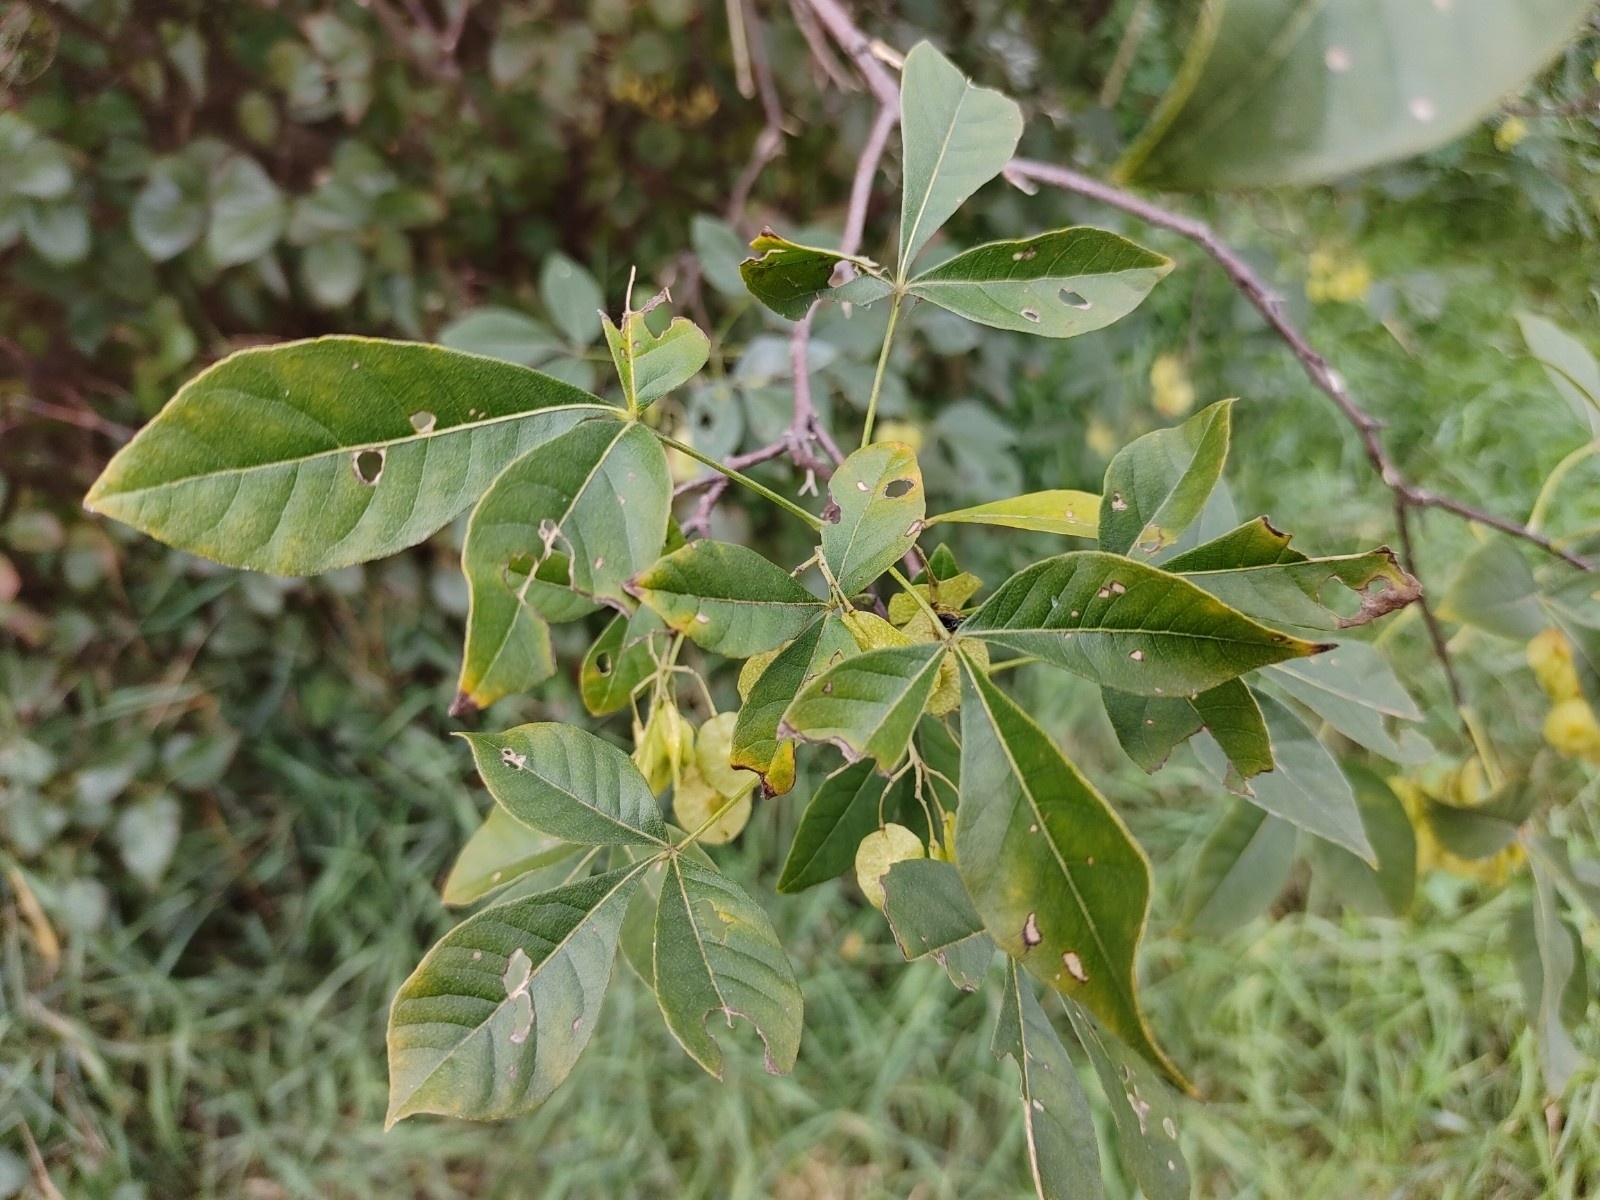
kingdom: Plantae
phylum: Tracheophyta
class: Magnoliopsida
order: Sapindales
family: Rutaceae
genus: Ptelea
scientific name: Ptelea trifoliata
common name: Common hop-tree
